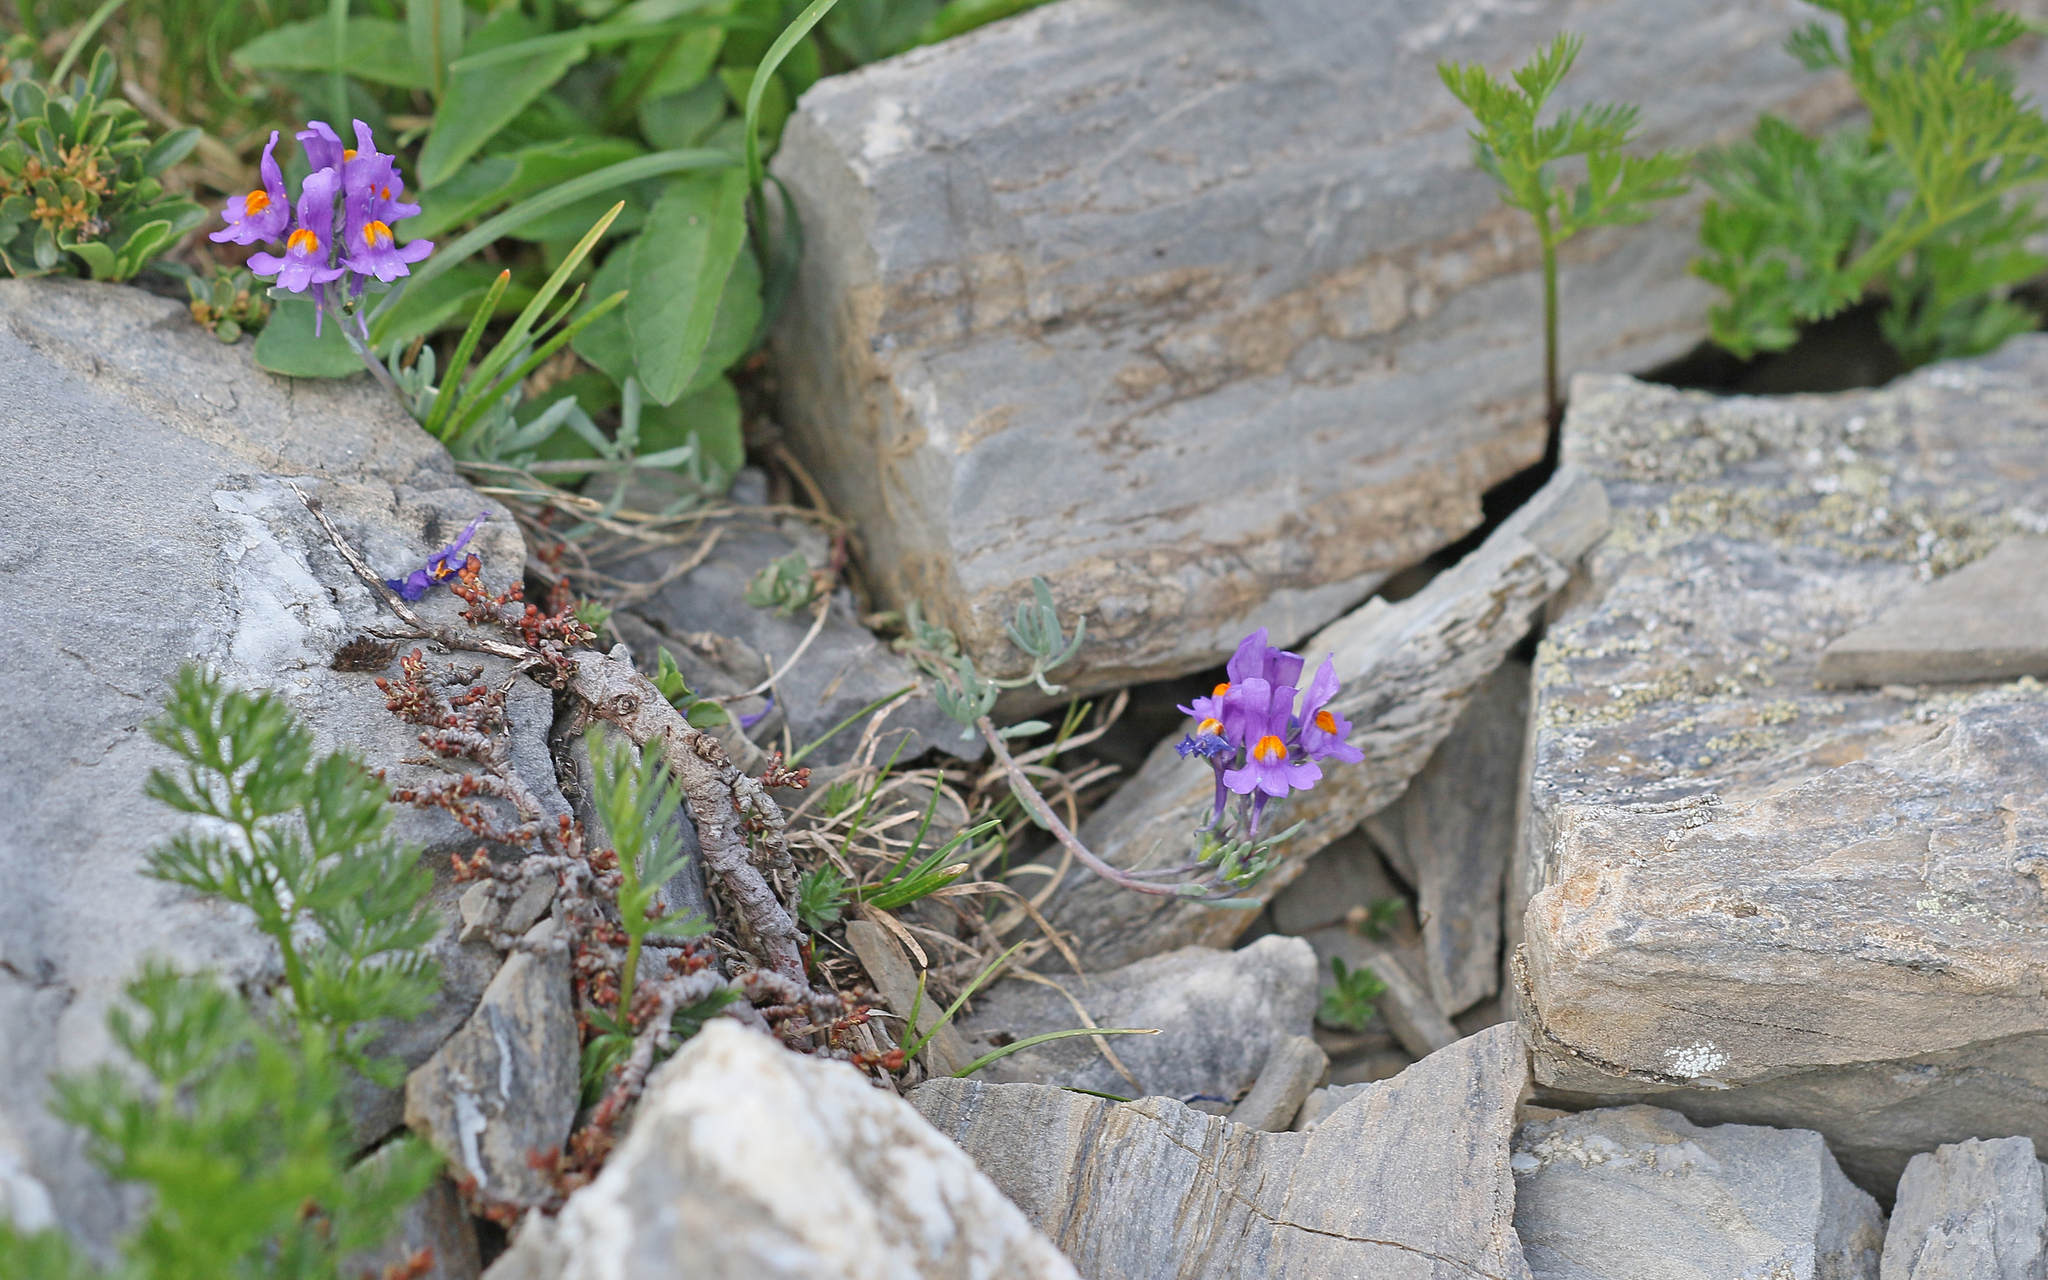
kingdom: Plantae
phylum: Tracheophyta
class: Magnoliopsida
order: Lamiales
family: Plantaginaceae
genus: Linaria
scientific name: Linaria alpina
